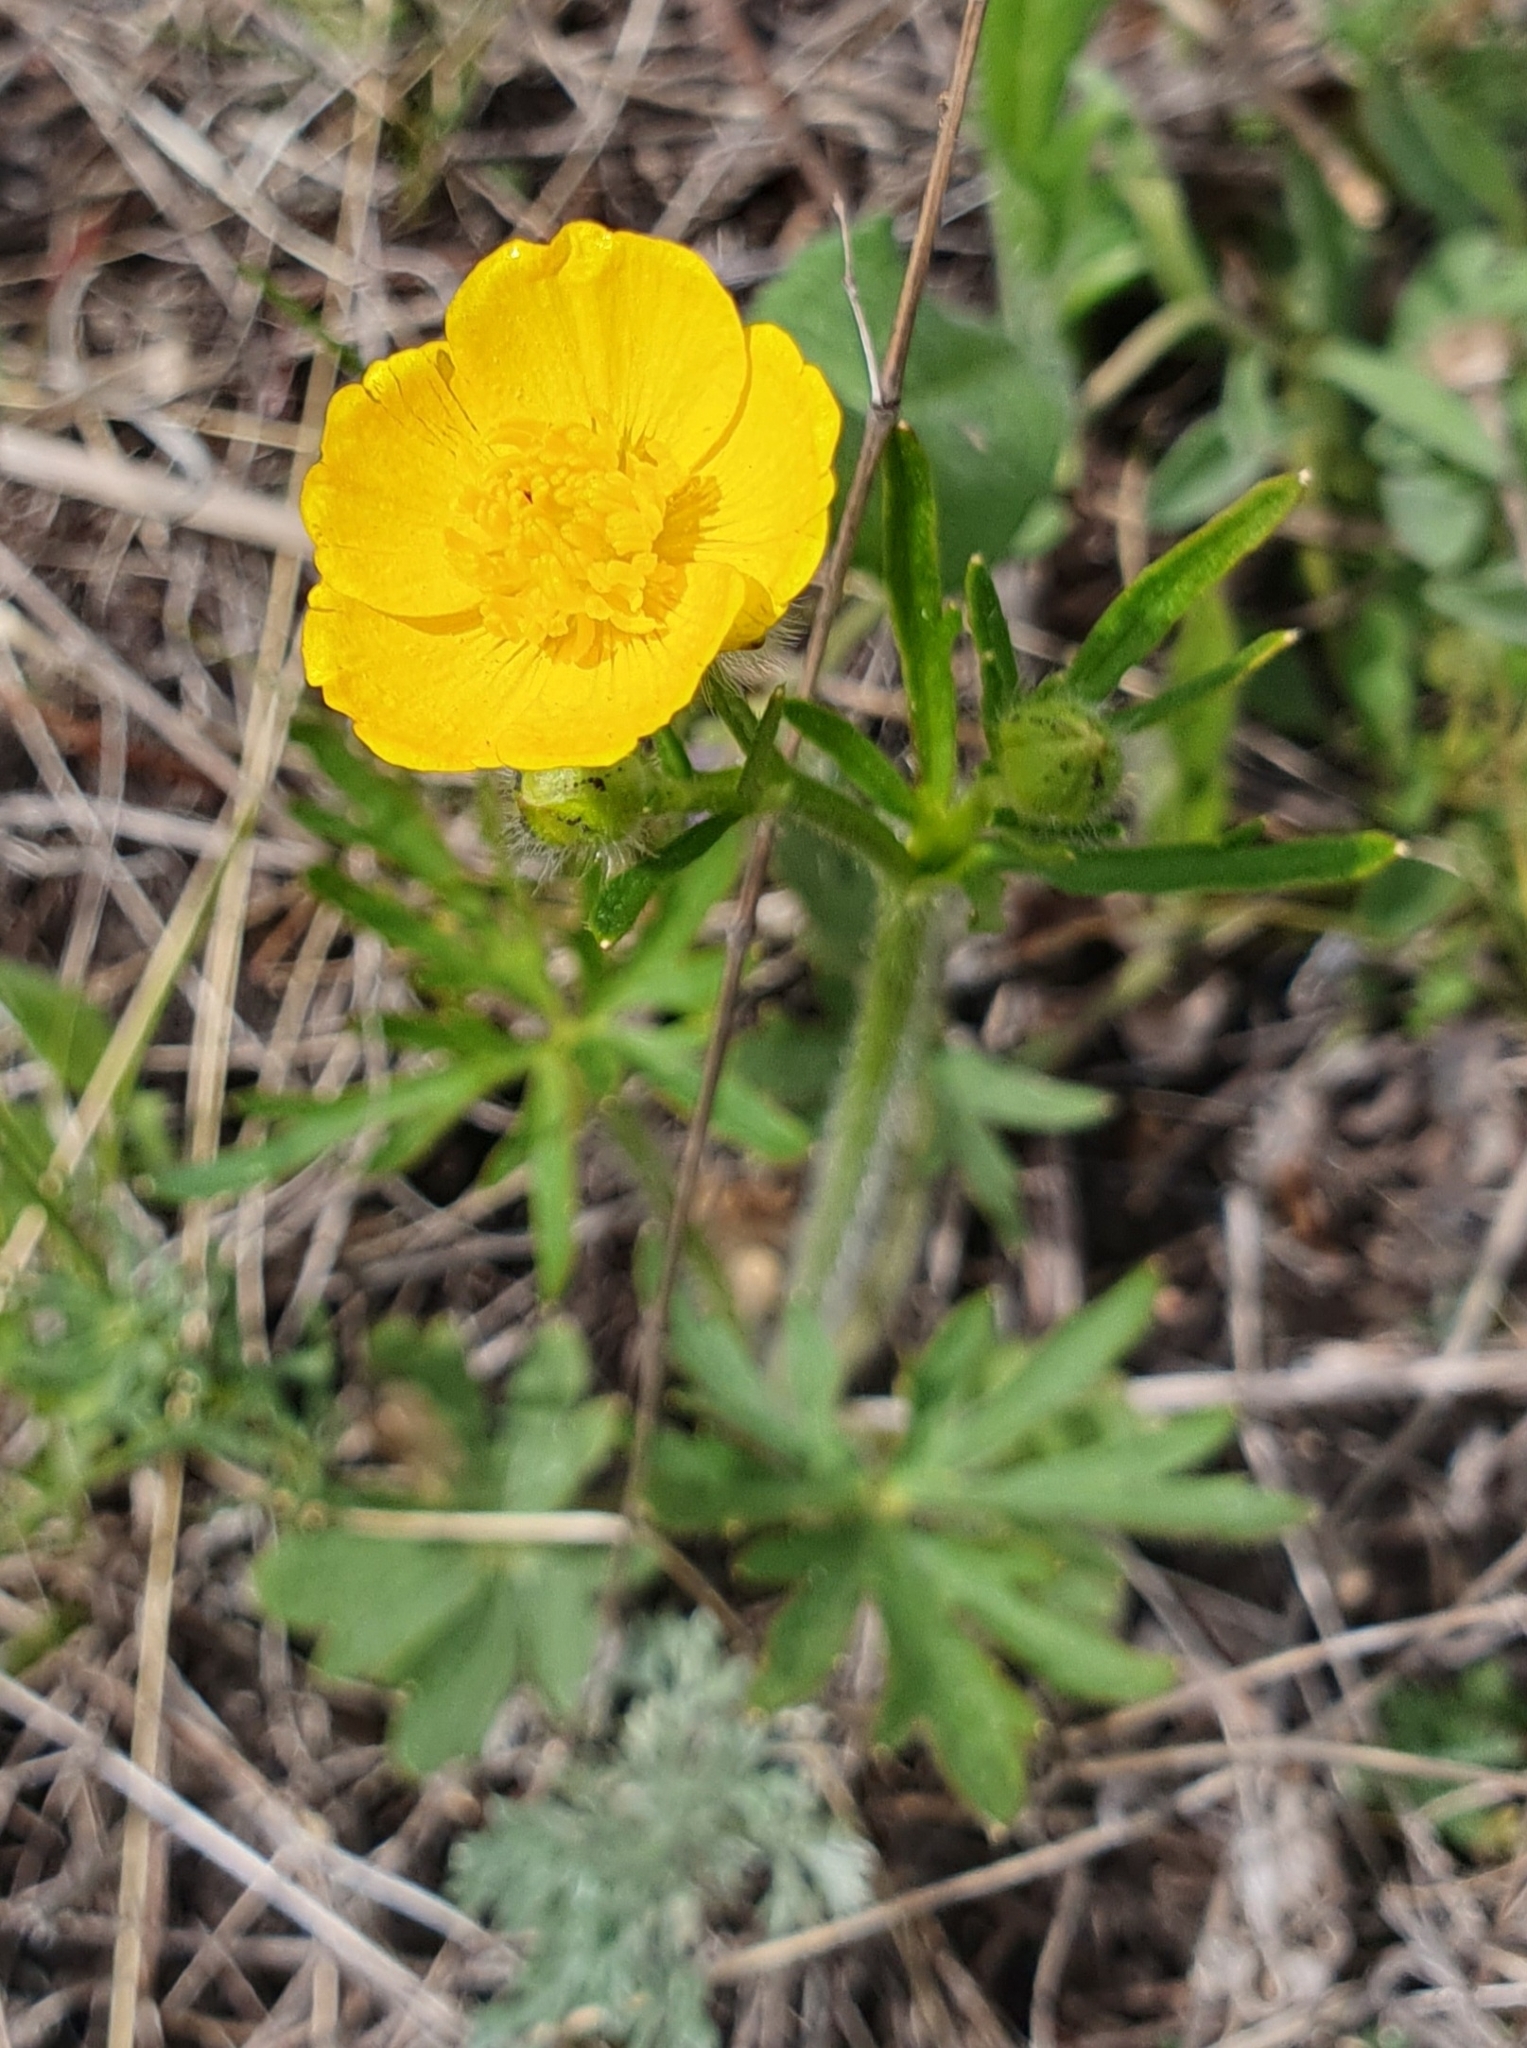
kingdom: Plantae
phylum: Tracheophyta
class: Magnoliopsida
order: Ranunculales
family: Ranunculaceae
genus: Ranunculus
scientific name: Ranunculus polyanthemos
